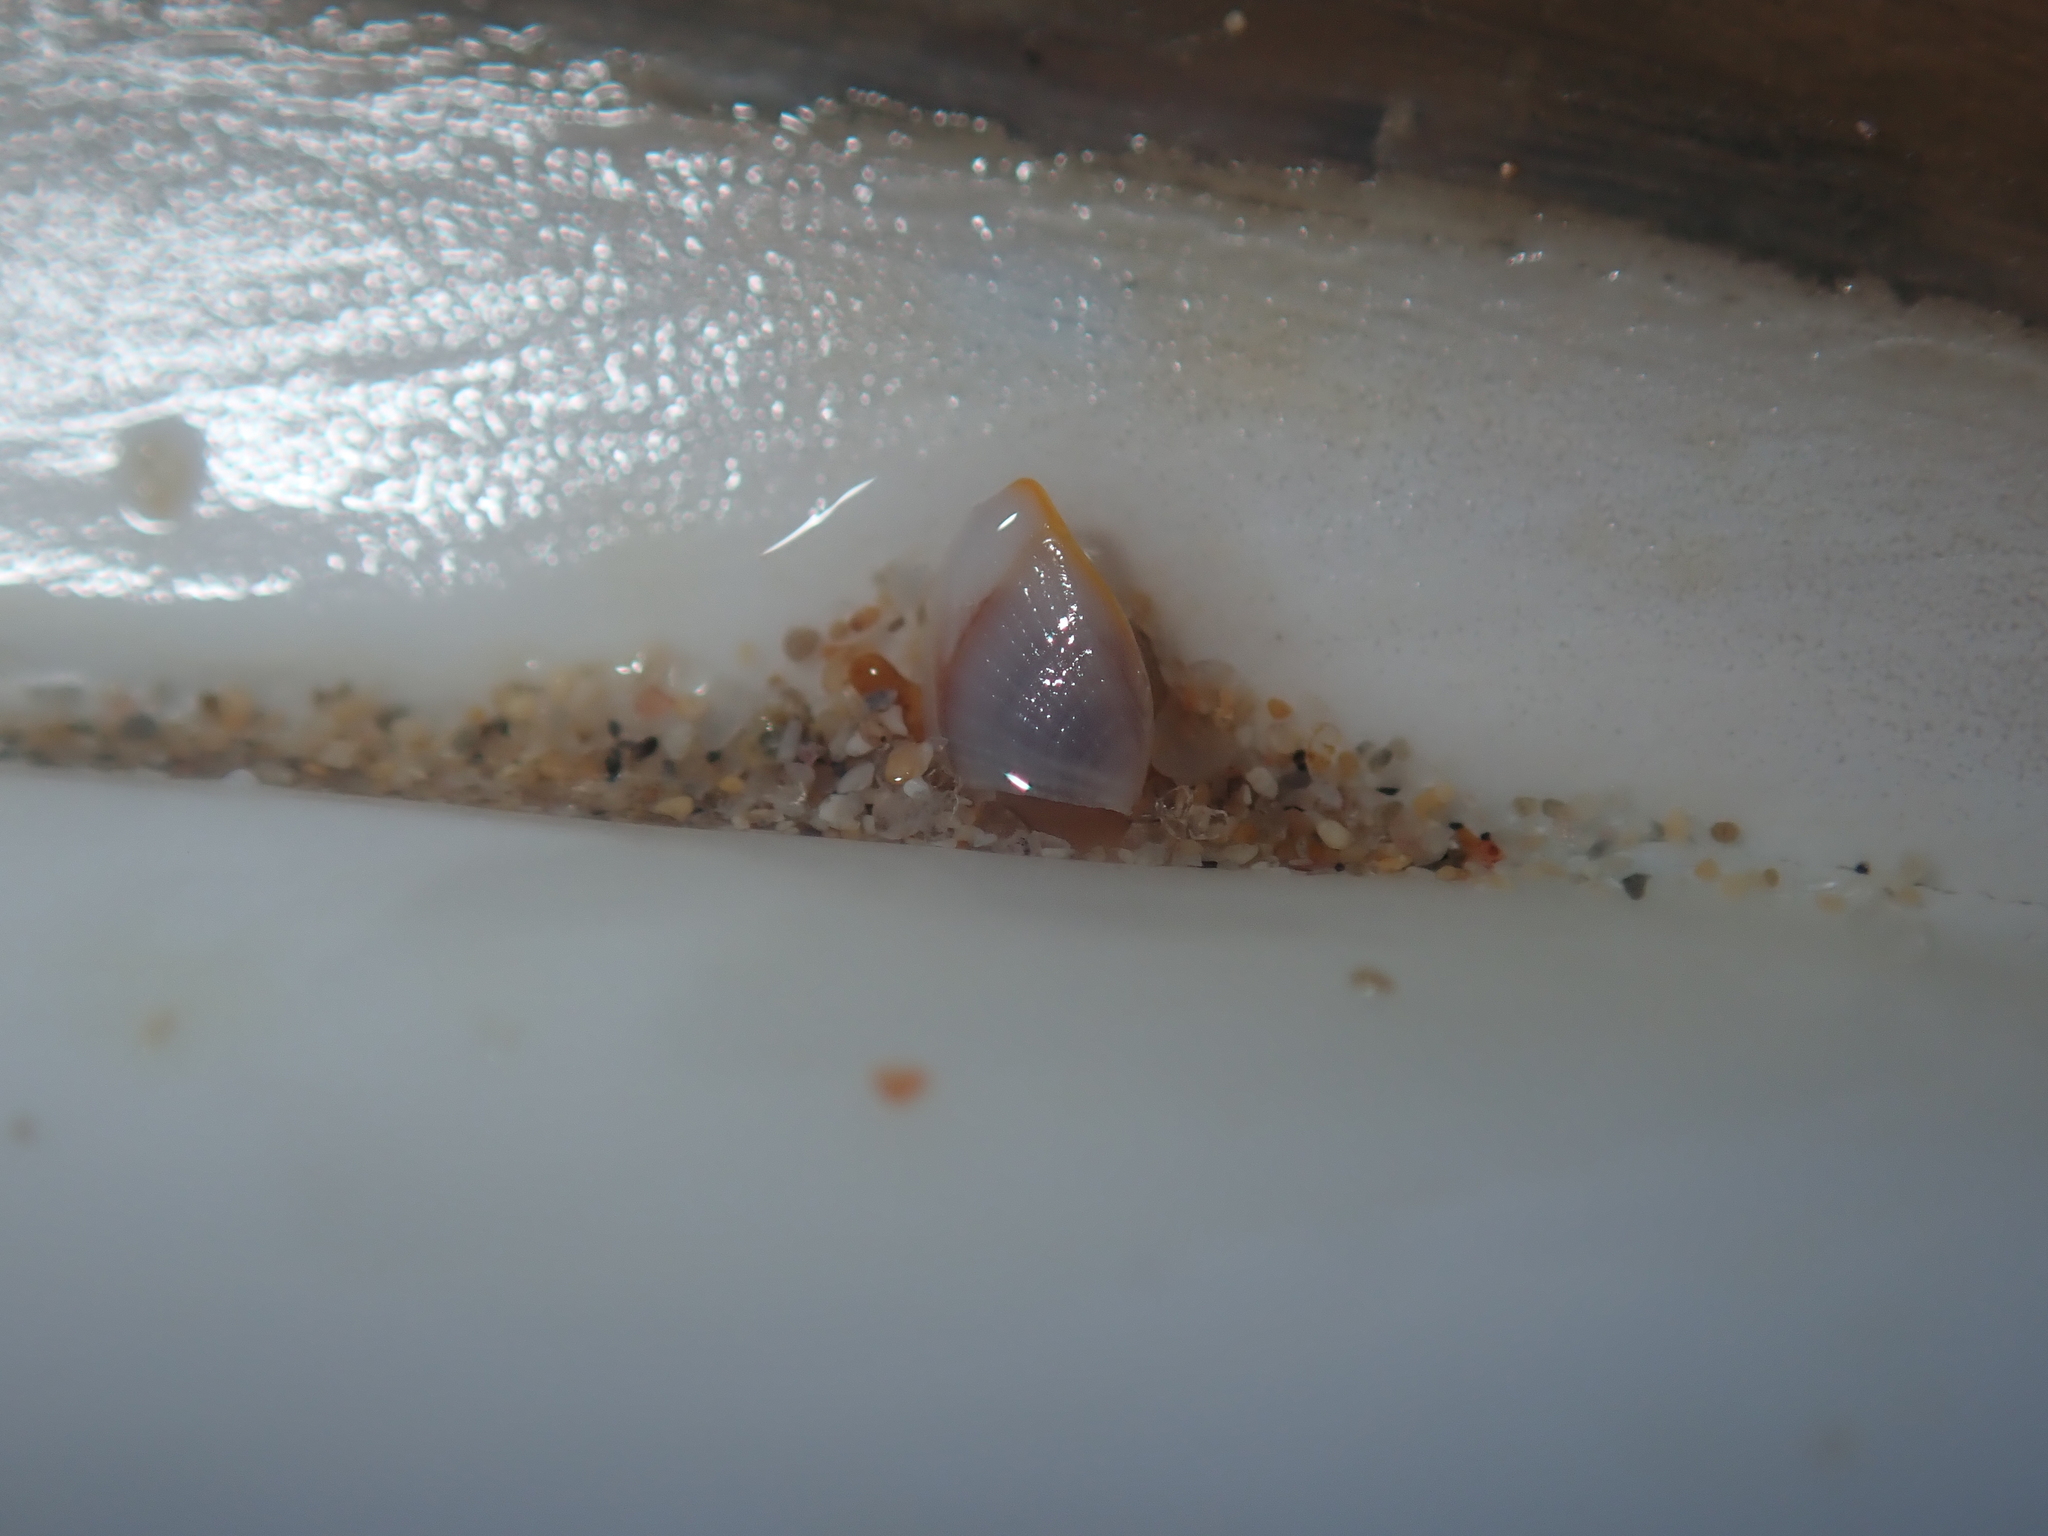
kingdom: Animalia
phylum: Arthropoda
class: Maxillopoda
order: Pedunculata
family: Lepadidae
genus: Lepas
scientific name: Lepas anserifera
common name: Goose barnacle
